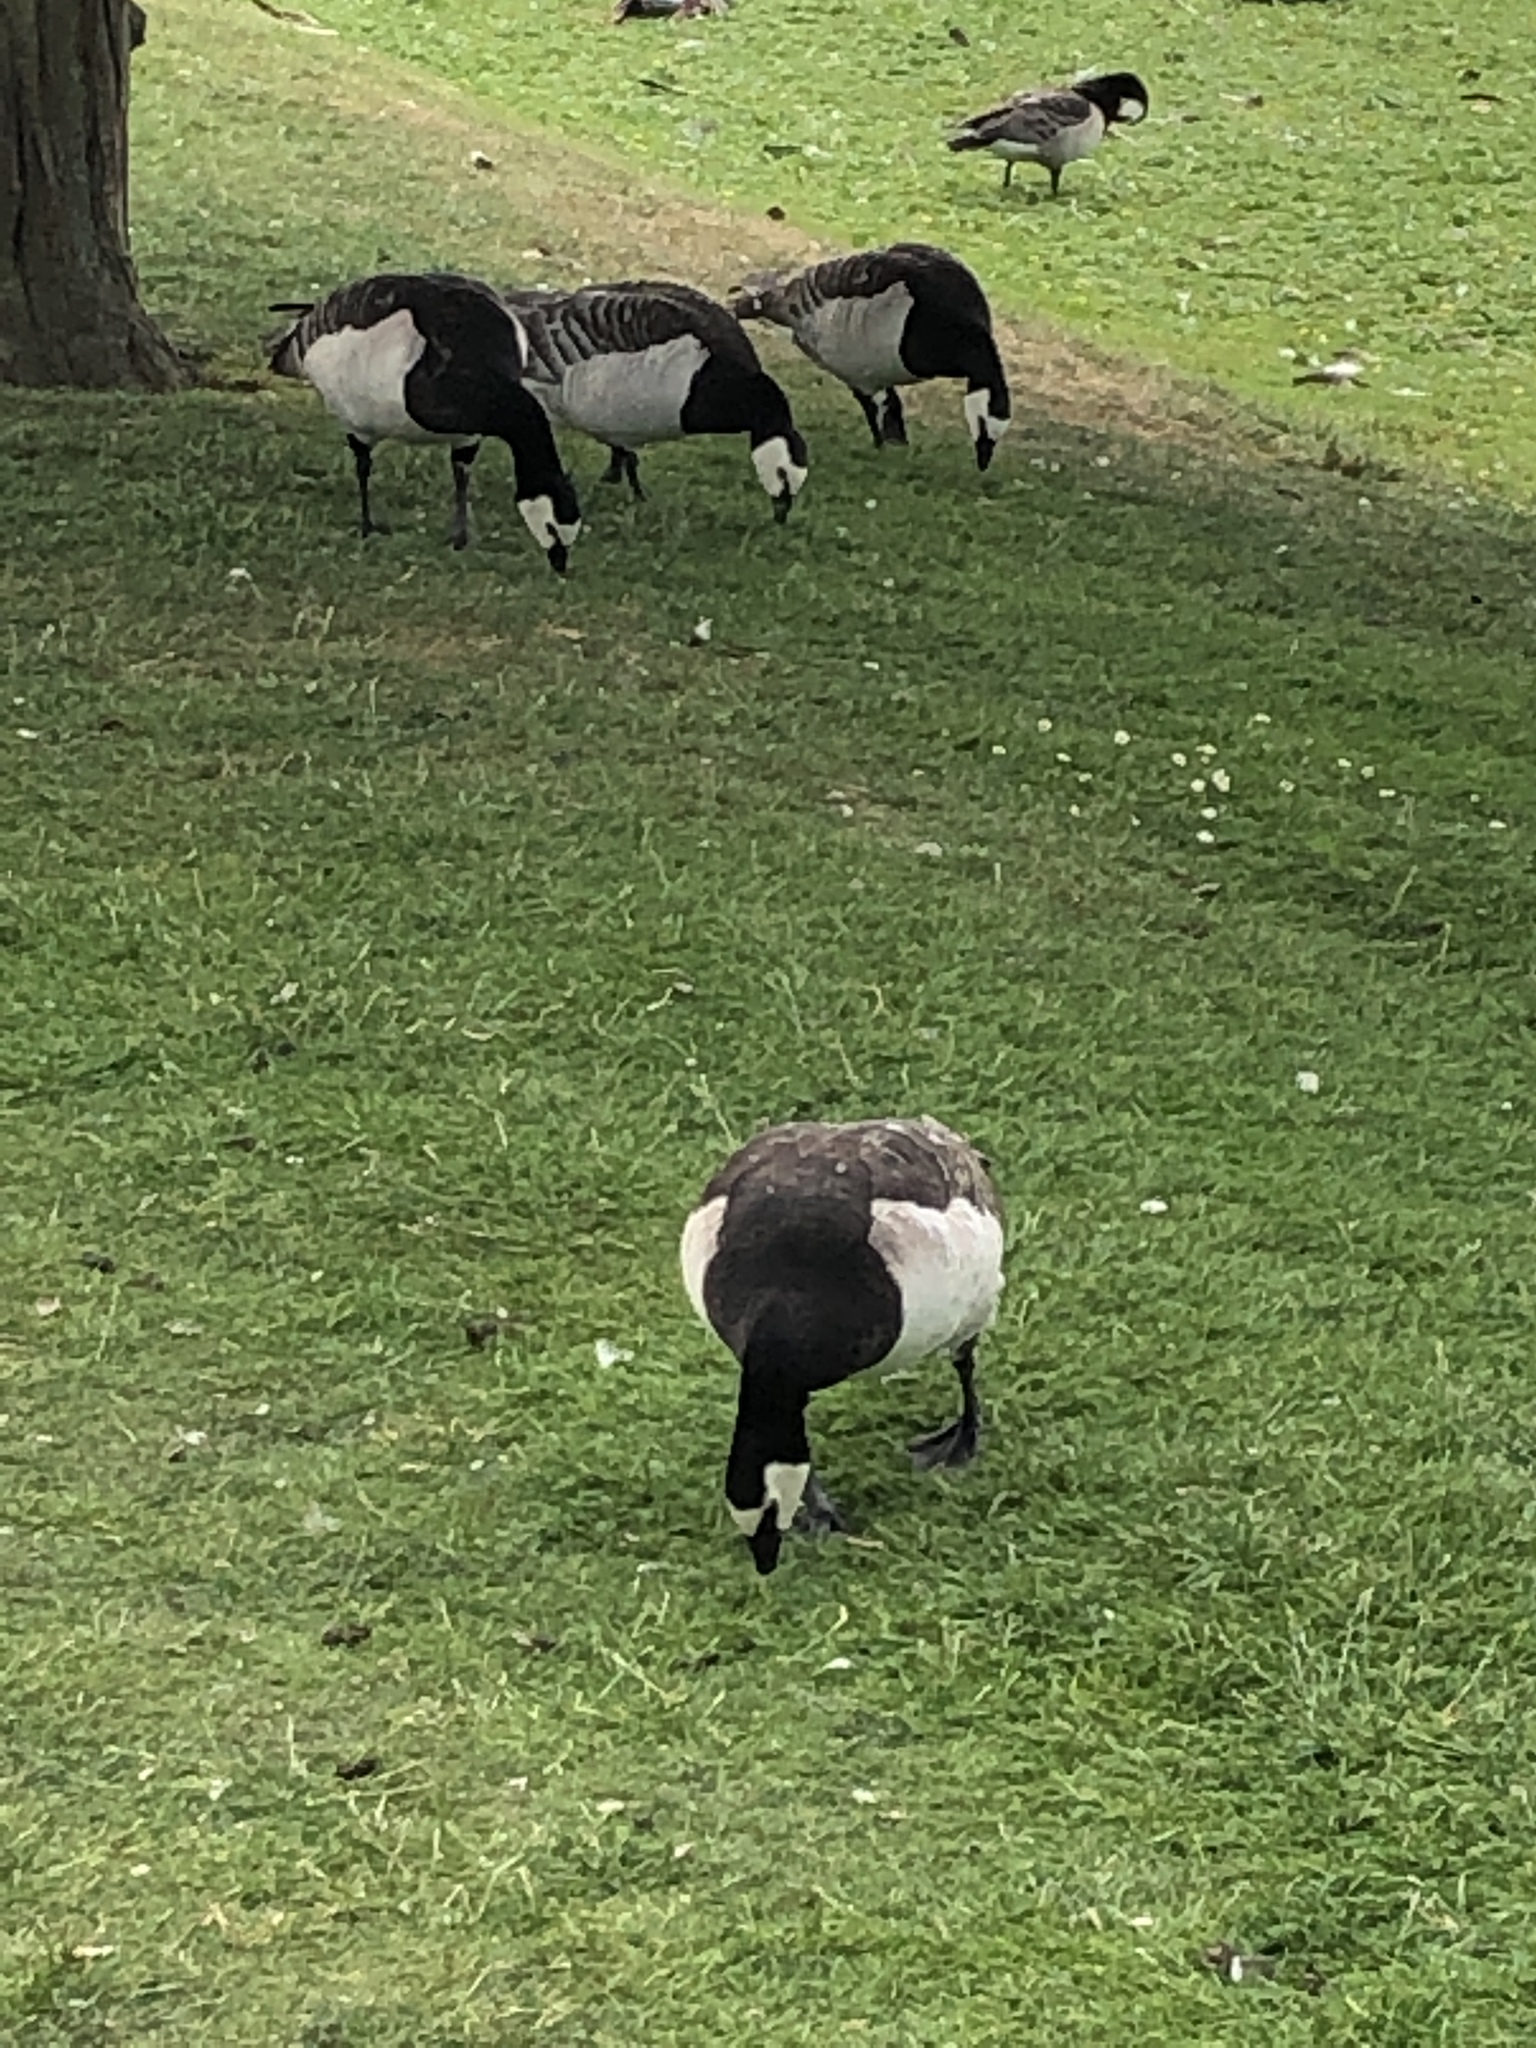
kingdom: Animalia
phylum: Chordata
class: Aves
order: Anseriformes
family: Anatidae
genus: Branta
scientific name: Branta leucopsis
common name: Barnacle goose
